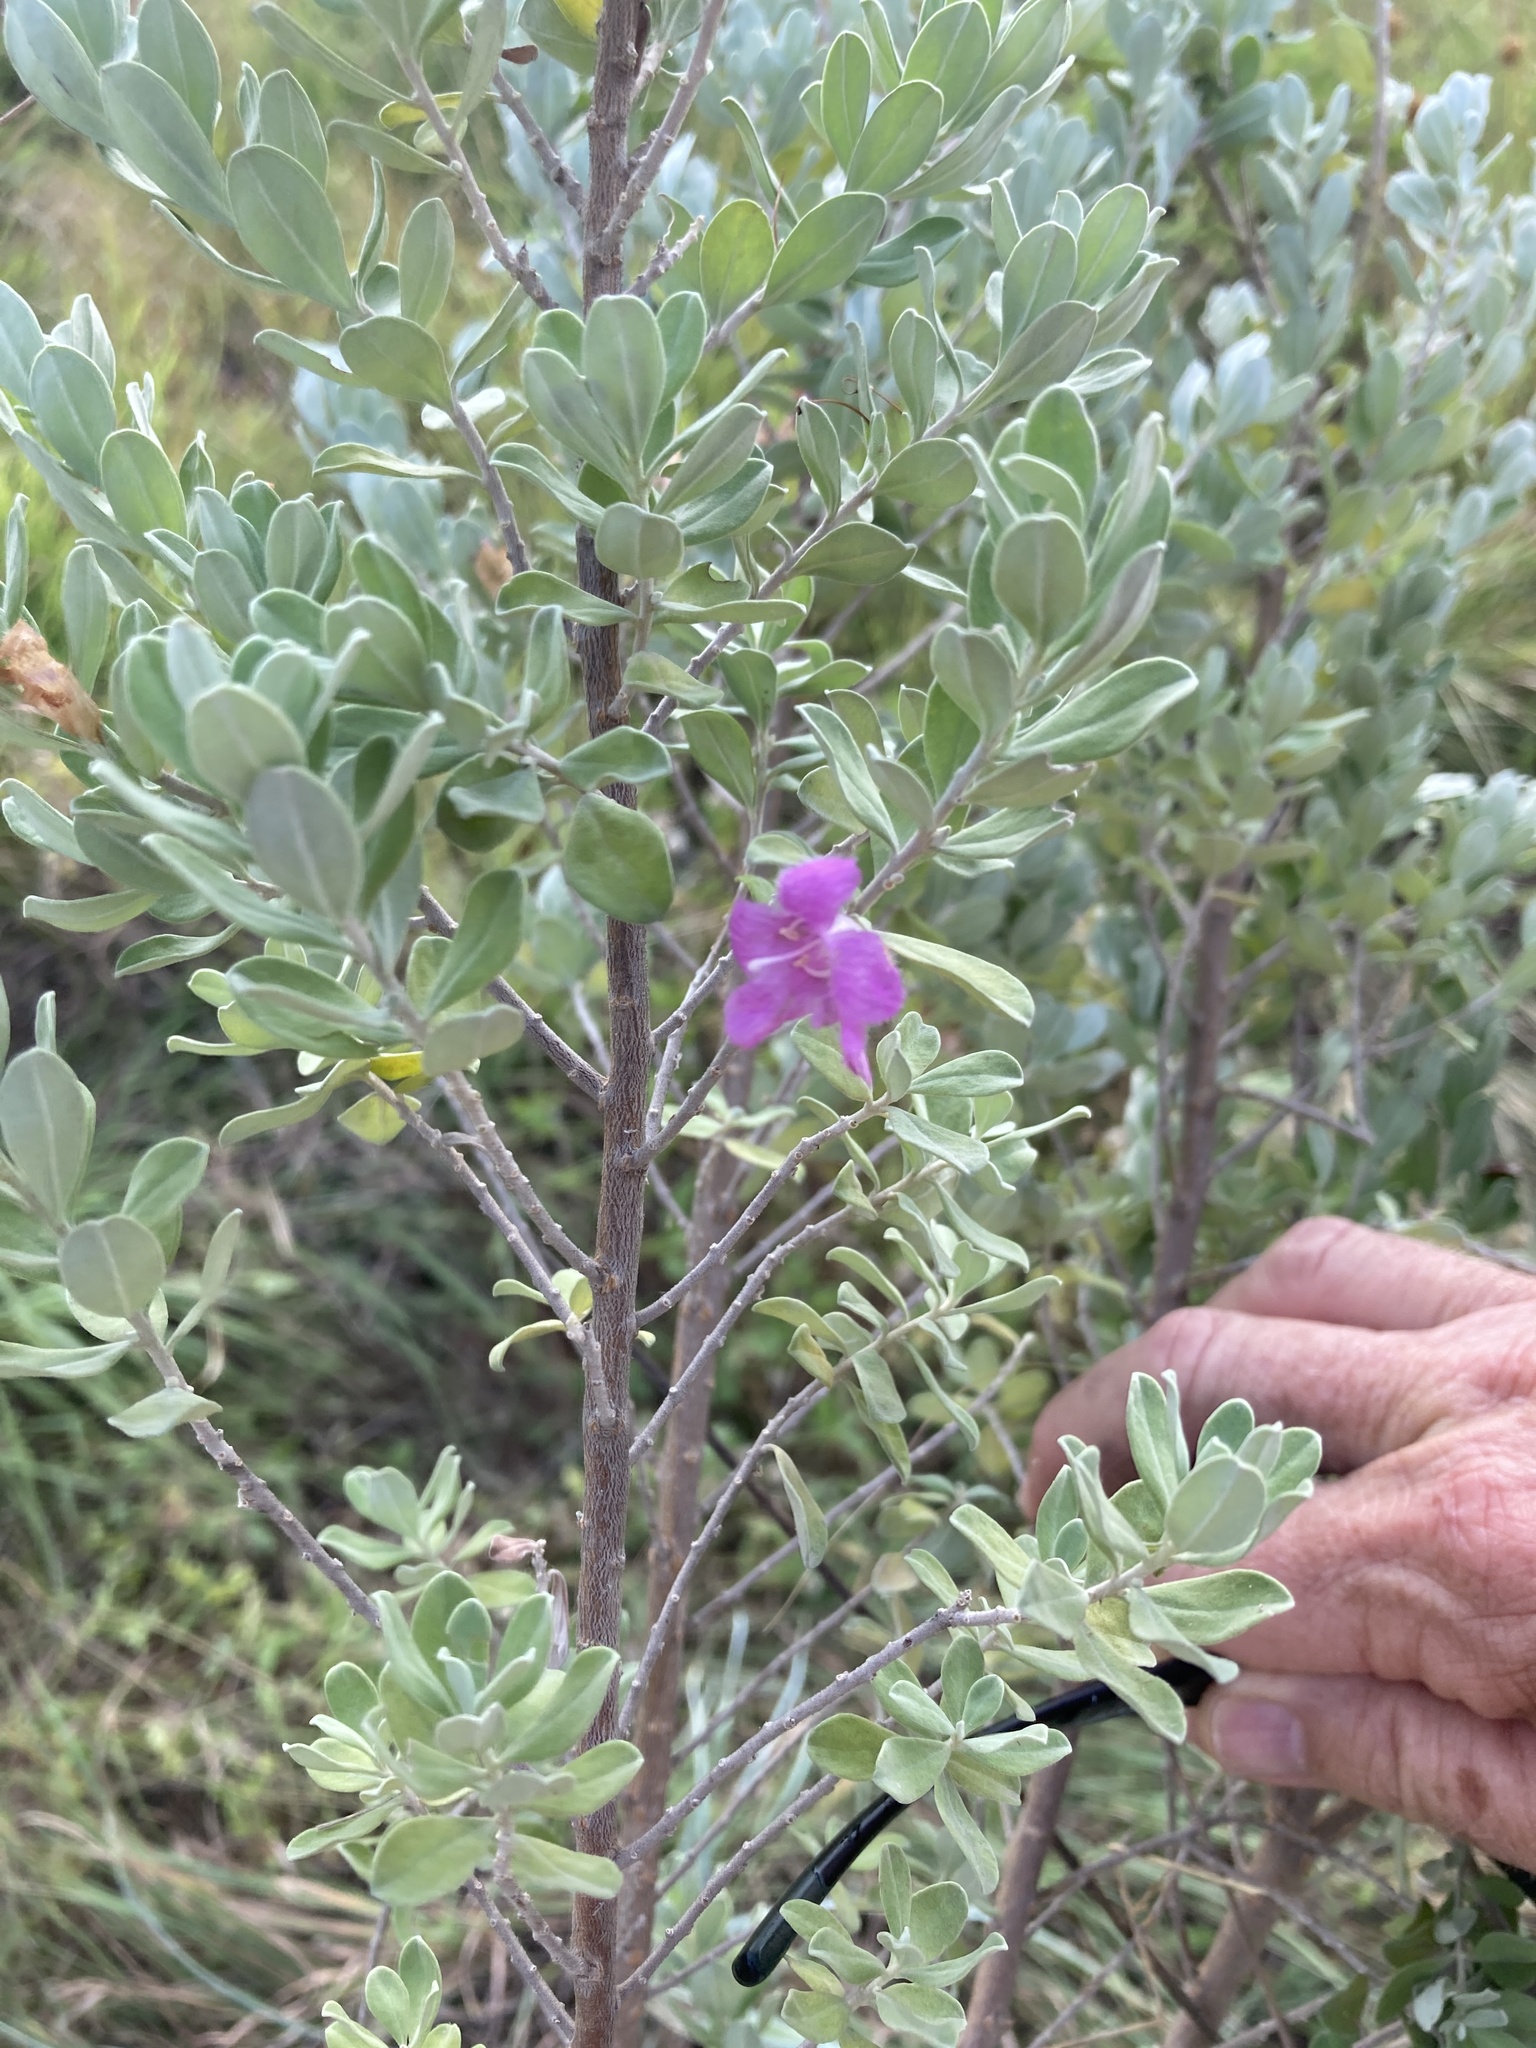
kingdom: Plantae
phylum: Tracheophyta
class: Magnoliopsida
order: Lamiales
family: Scrophulariaceae
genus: Leucophyllum
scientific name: Leucophyllum frutescens
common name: Texas silverleaf
